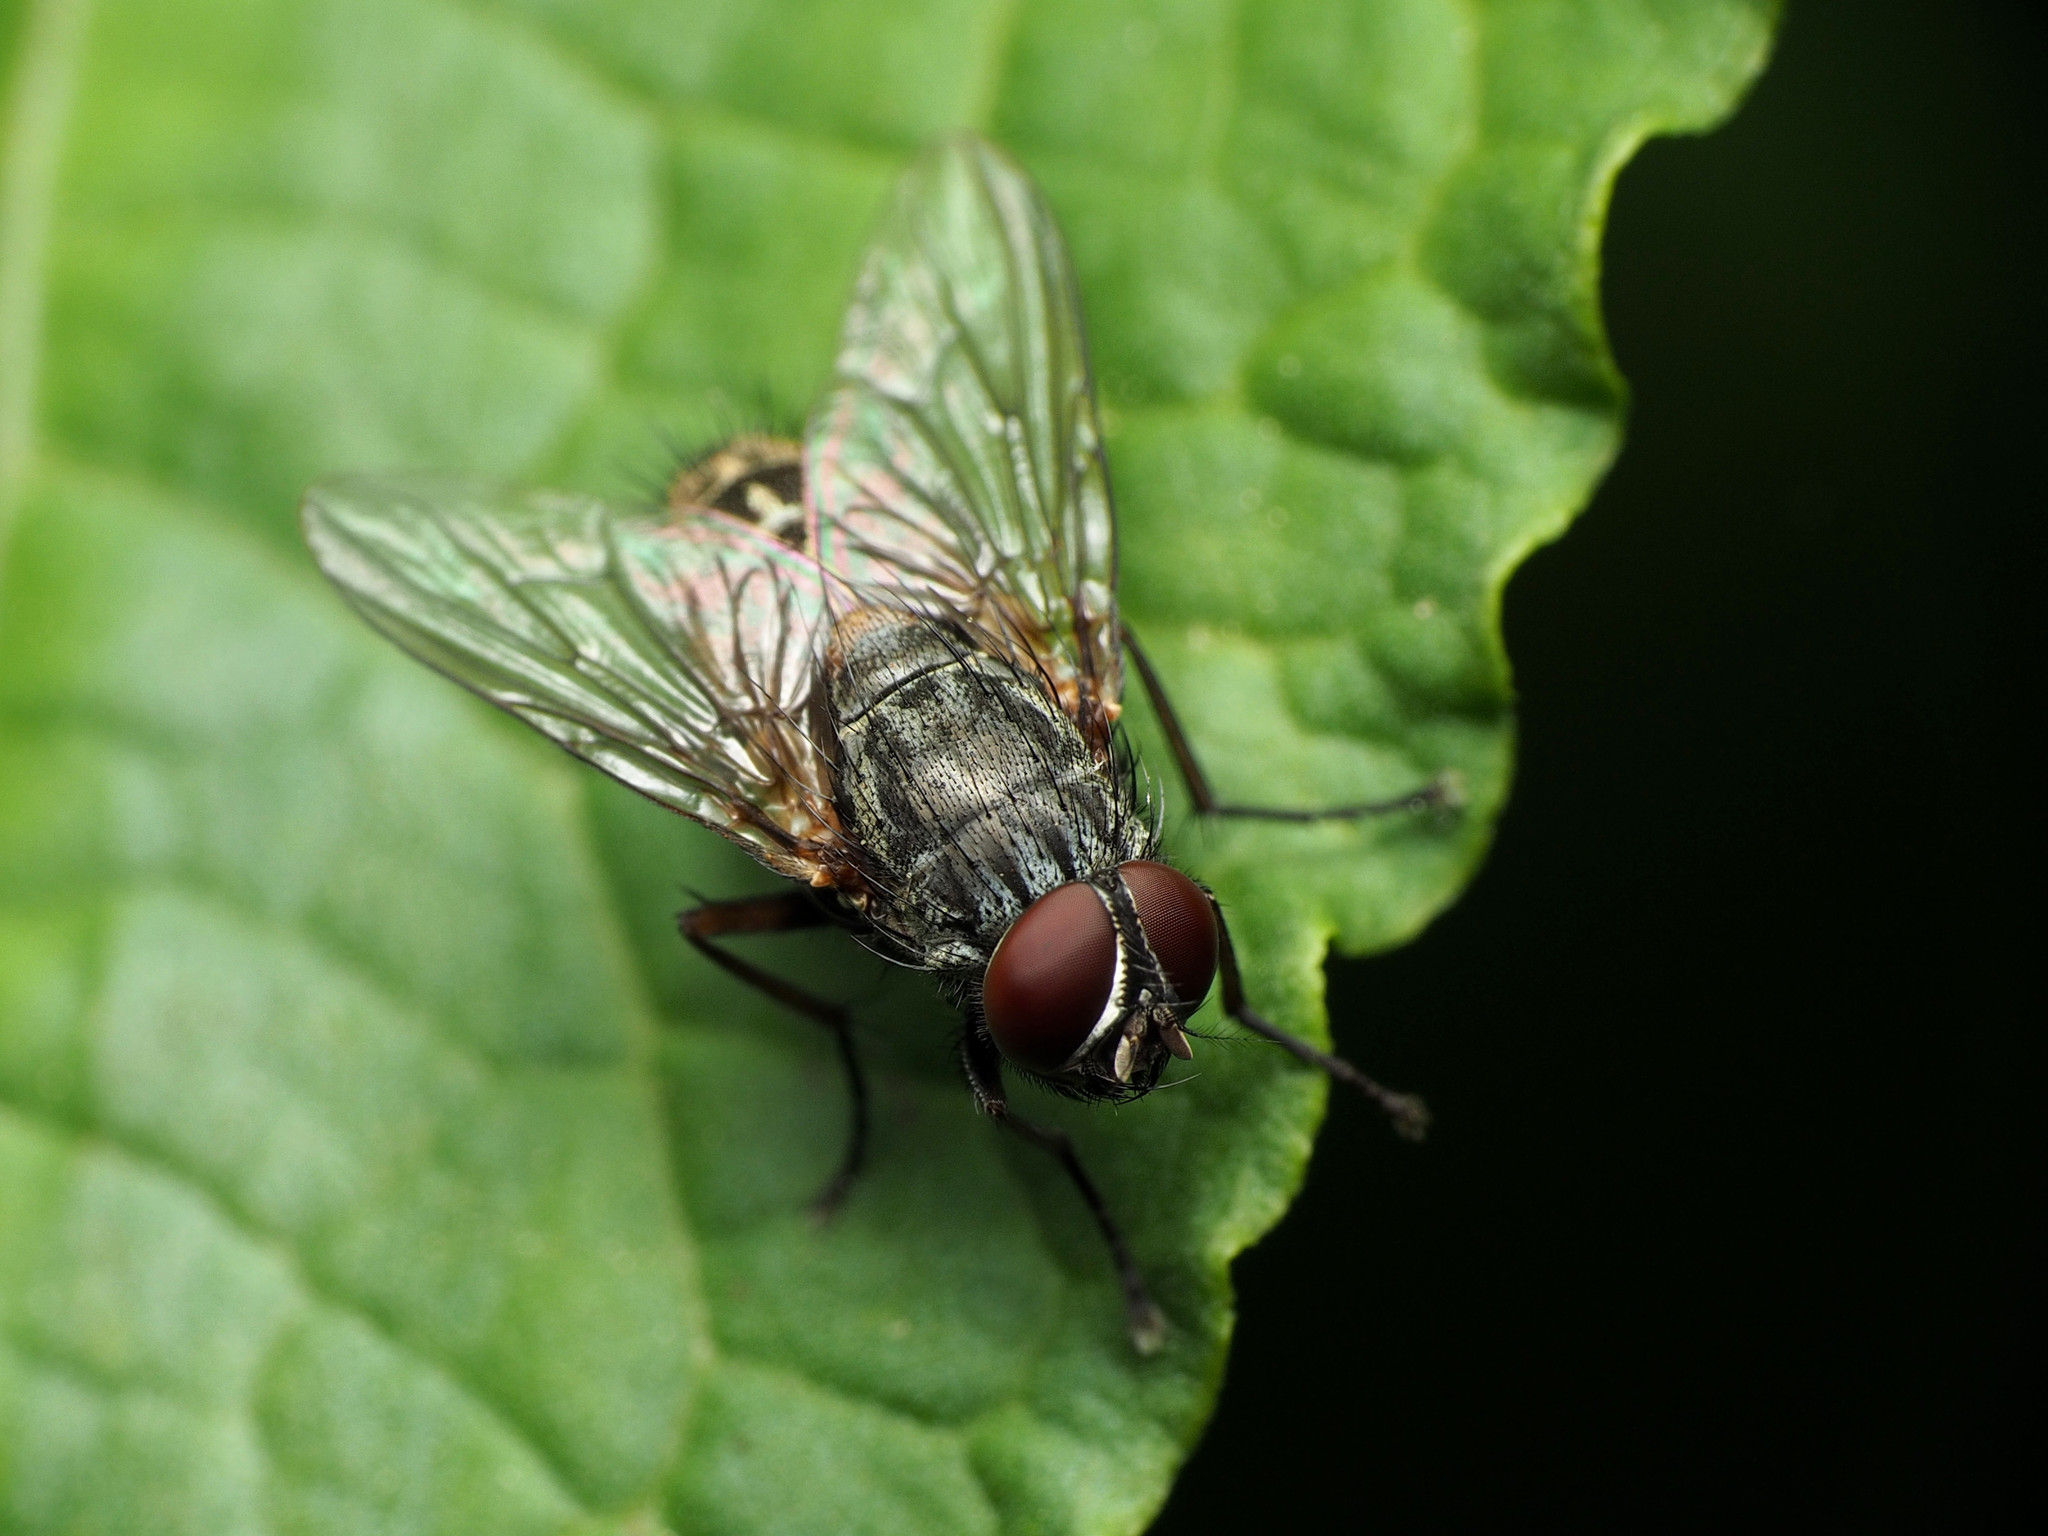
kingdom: Animalia
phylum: Arthropoda
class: Insecta
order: Diptera
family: Muscidae
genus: Muscina
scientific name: Muscina stabulans
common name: False stable fly
